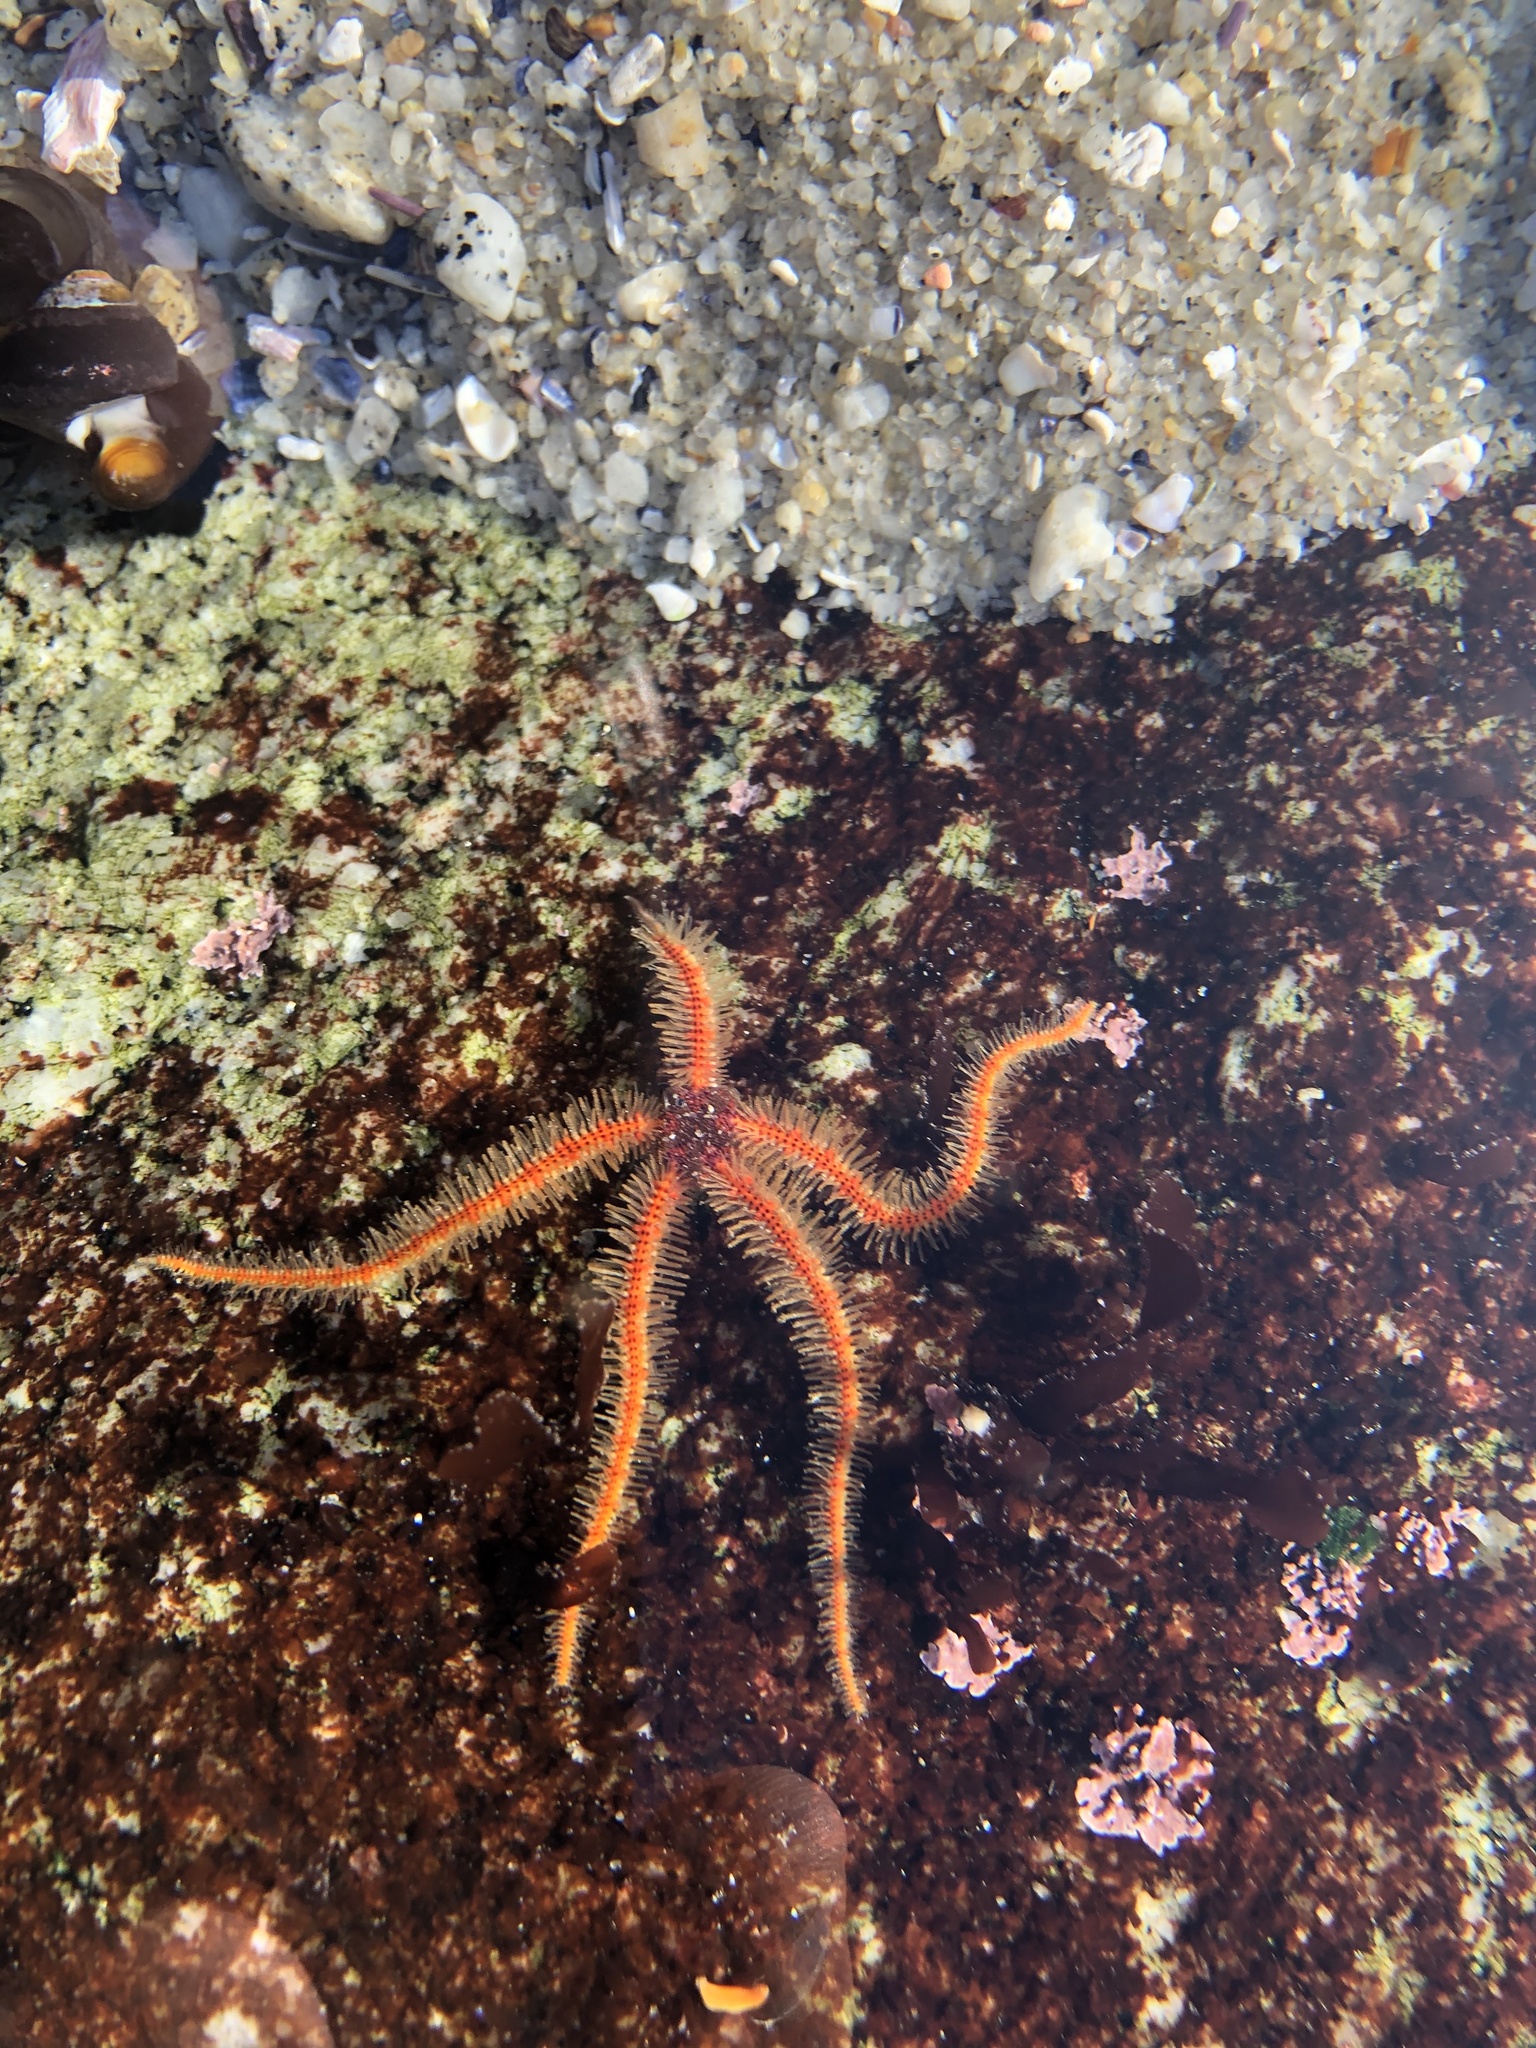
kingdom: Animalia
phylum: Echinodermata
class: Ophiuroidea
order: Amphilepidida
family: Ophiotrichidae
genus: Ophiothrix
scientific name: Ophiothrix spiculata
